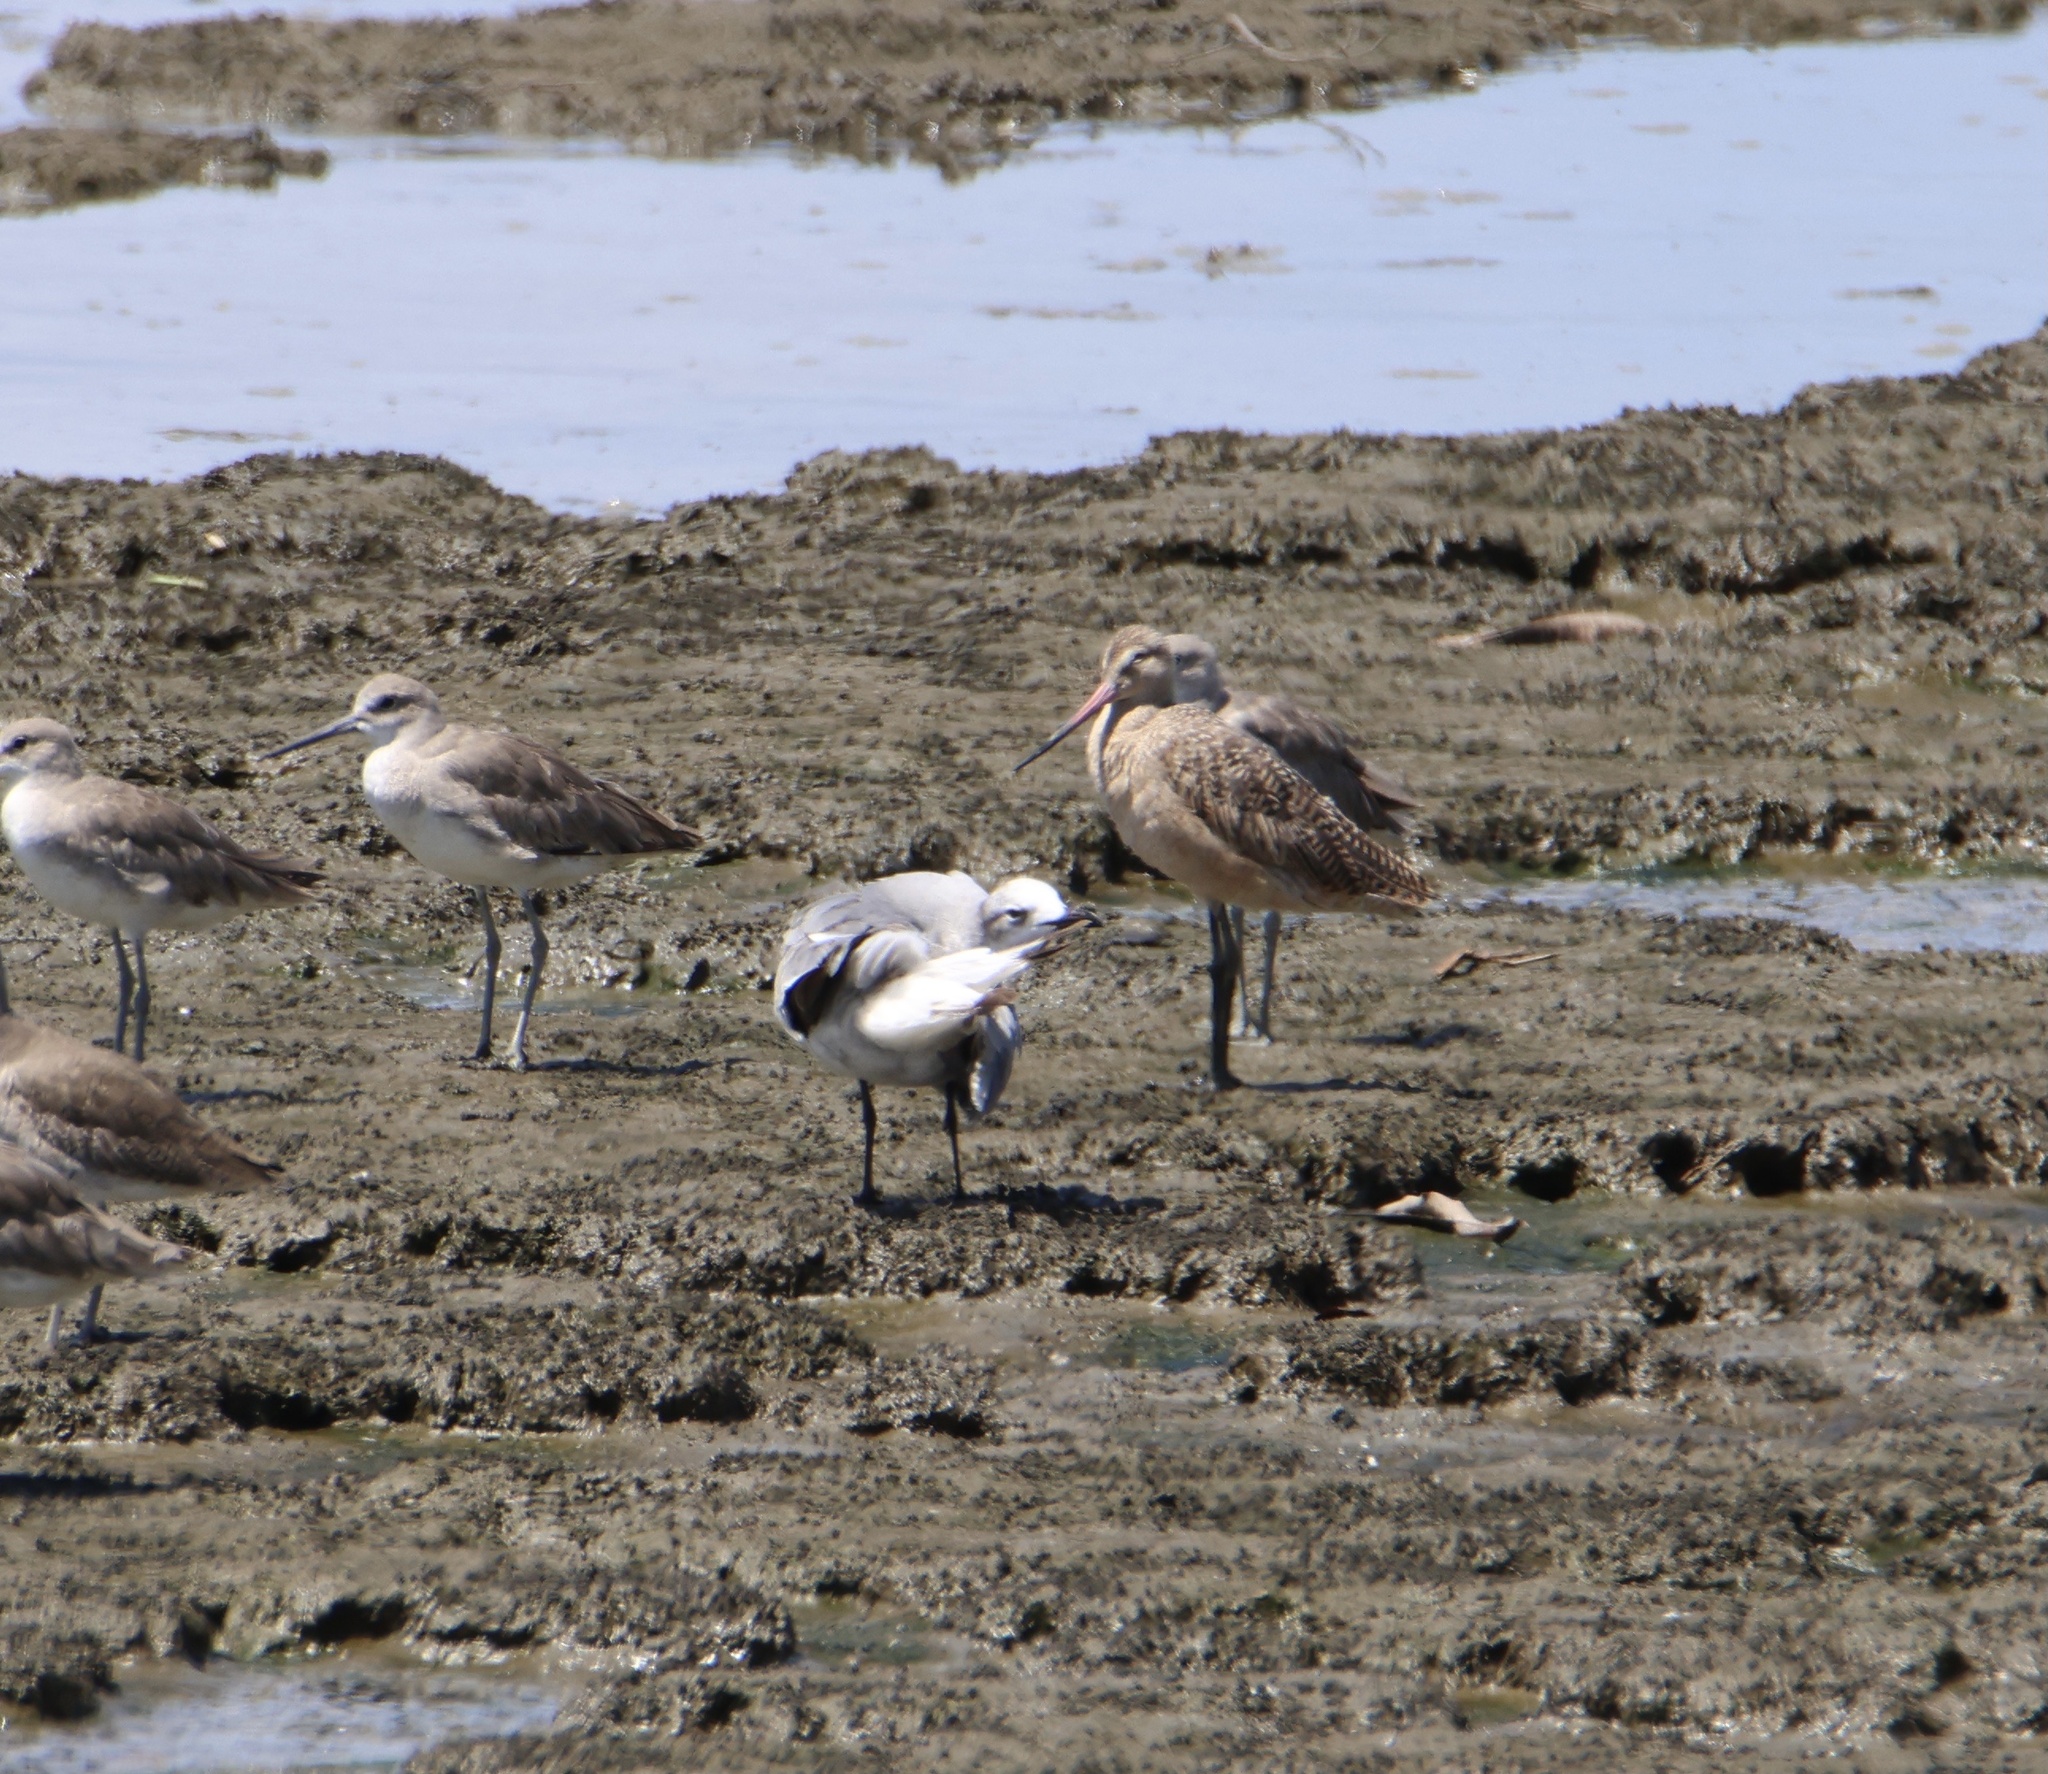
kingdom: Animalia
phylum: Chordata
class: Aves
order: Charadriiformes
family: Scolopacidae
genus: Limosa
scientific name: Limosa fedoa
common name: Marbled godwit
